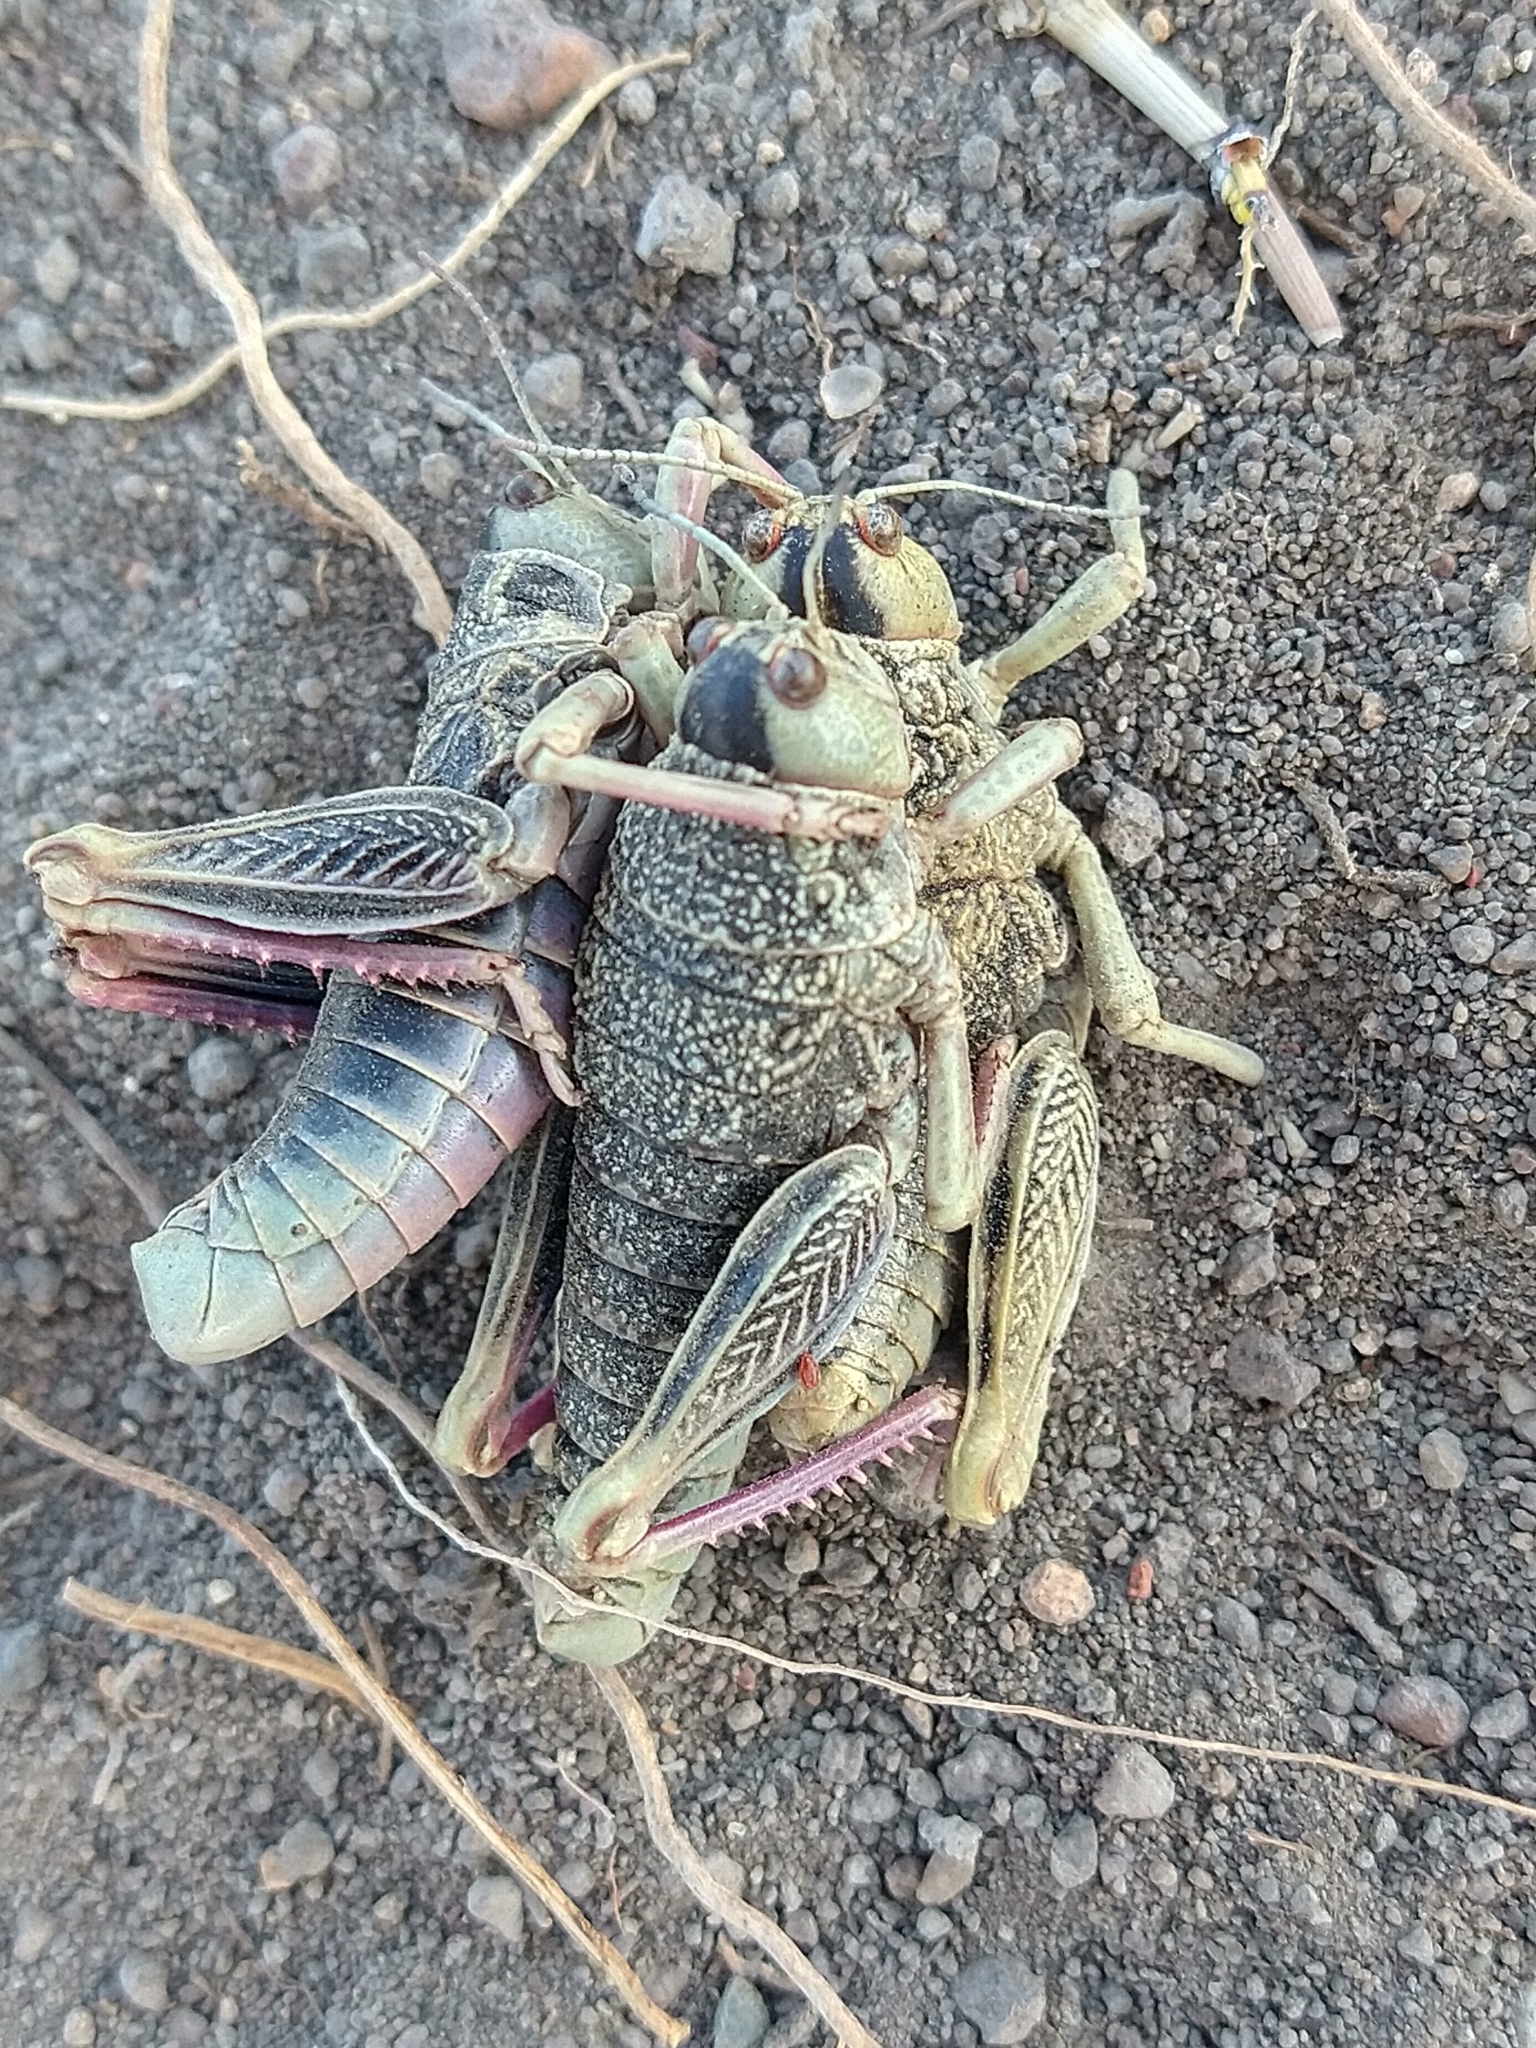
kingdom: Animalia
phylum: Arthropoda
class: Insecta
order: Orthoptera
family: Tristiridae
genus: Bufonacris
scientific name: Bufonacris claraziana
